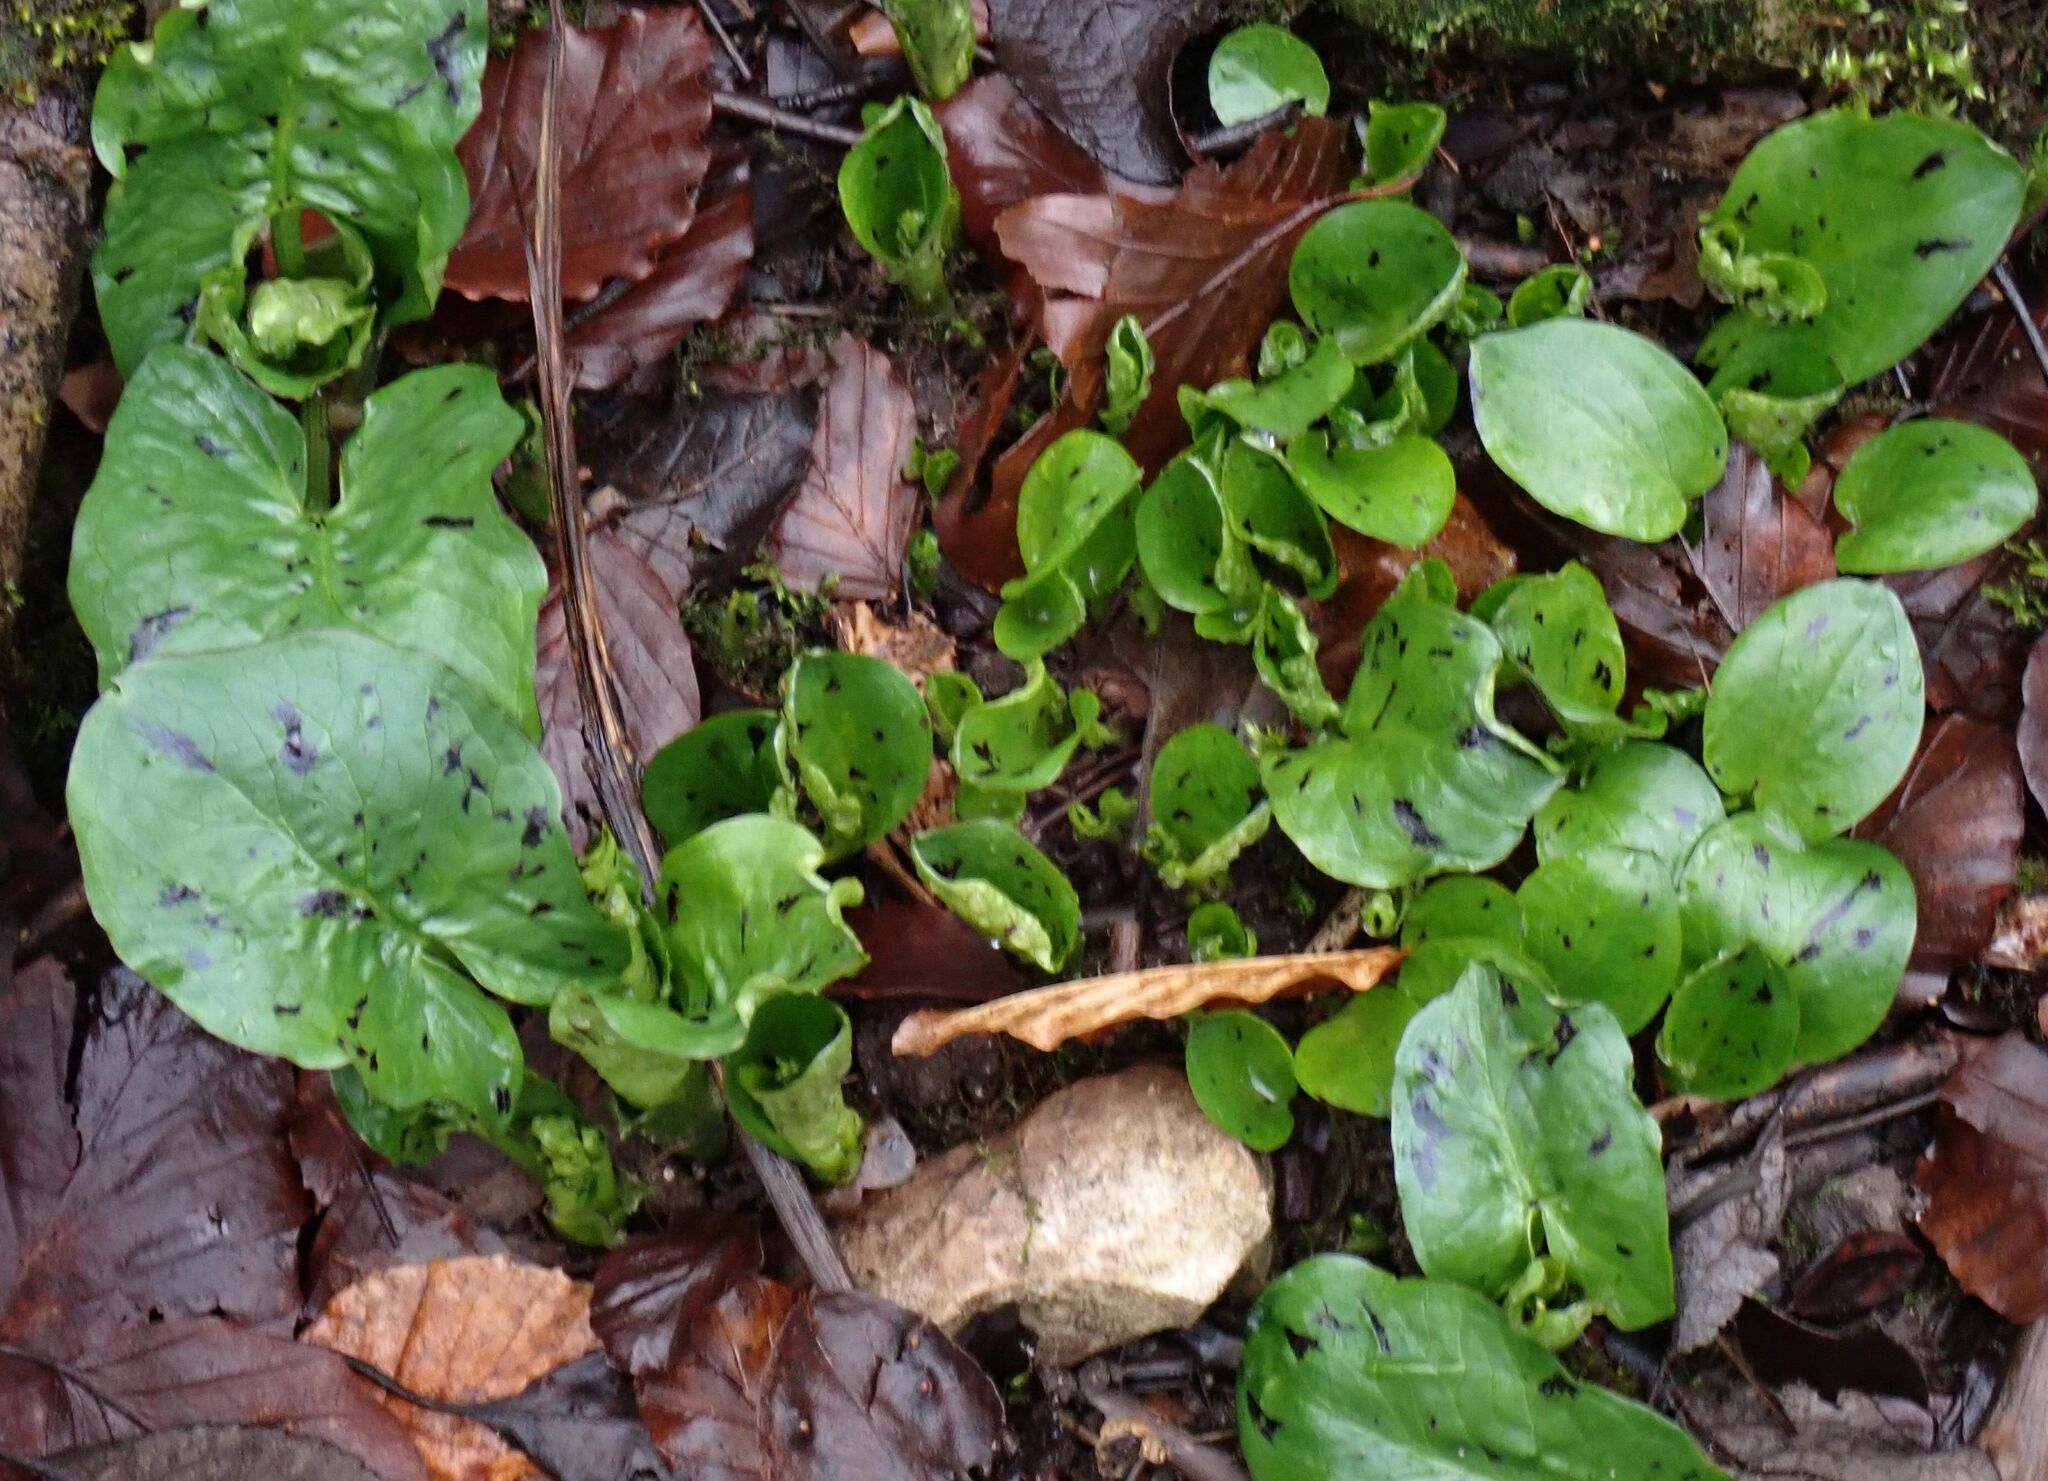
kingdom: Plantae
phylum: Tracheophyta
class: Liliopsida
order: Alismatales
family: Araceae
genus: Arum
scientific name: Arum maculatum
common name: Lords-and-ladies
